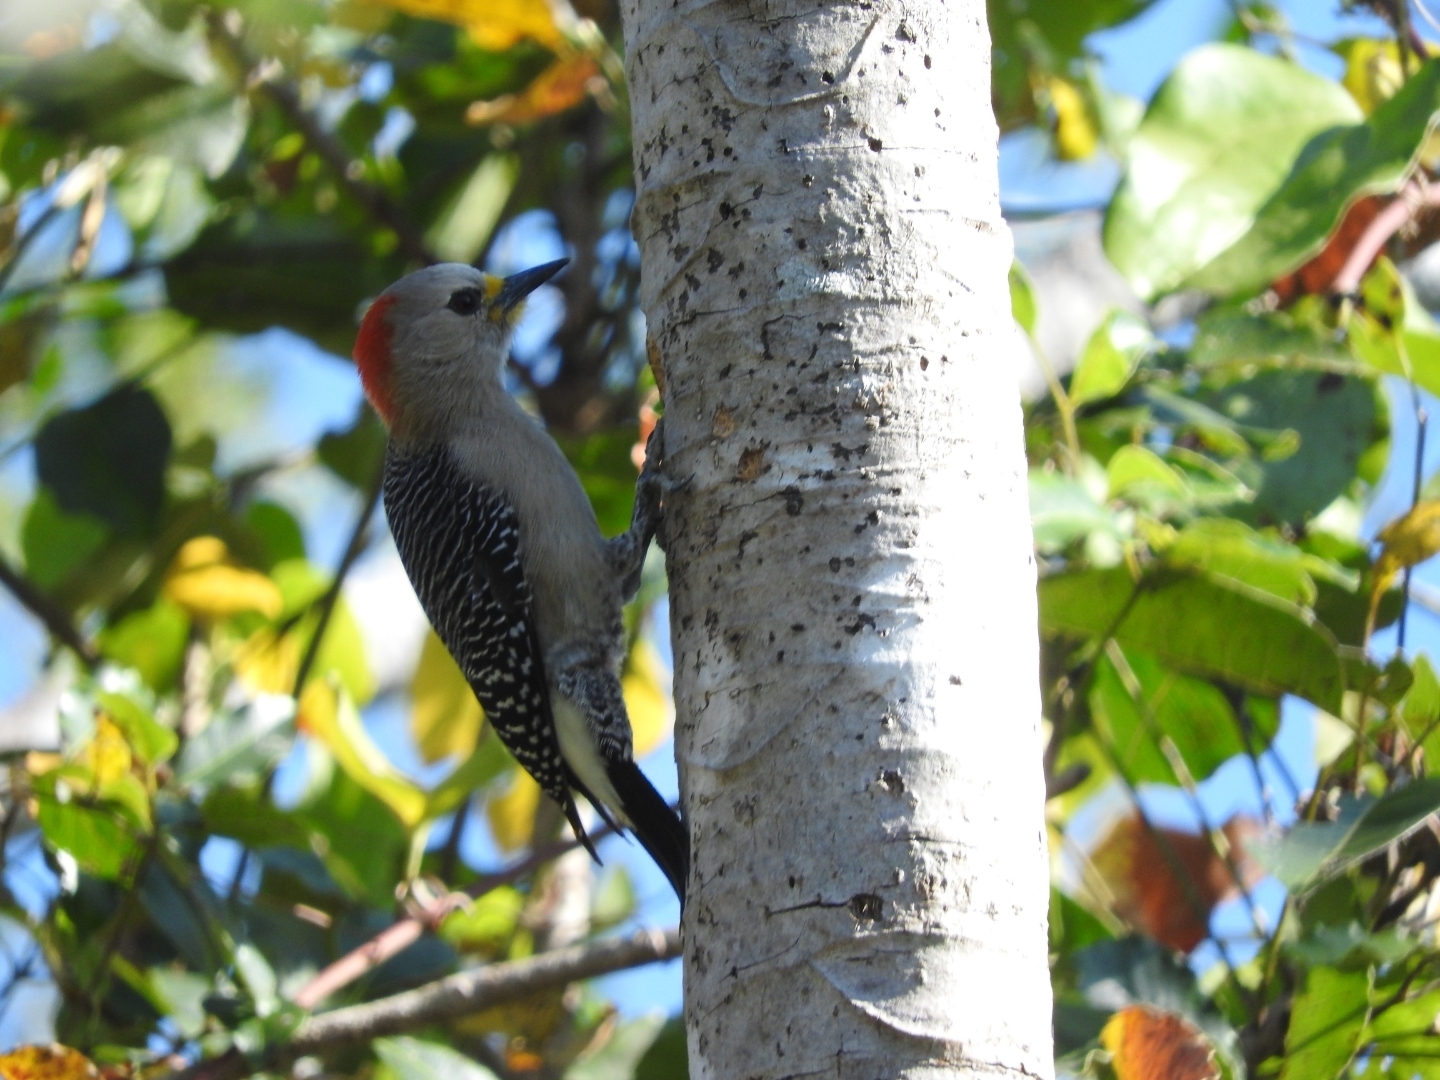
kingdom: Animalia
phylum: Chordata
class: Aves
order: Piciformes
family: Picidae
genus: Melanerpes
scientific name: Melanerpes pygmaeus
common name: Yucatan woodpecker
